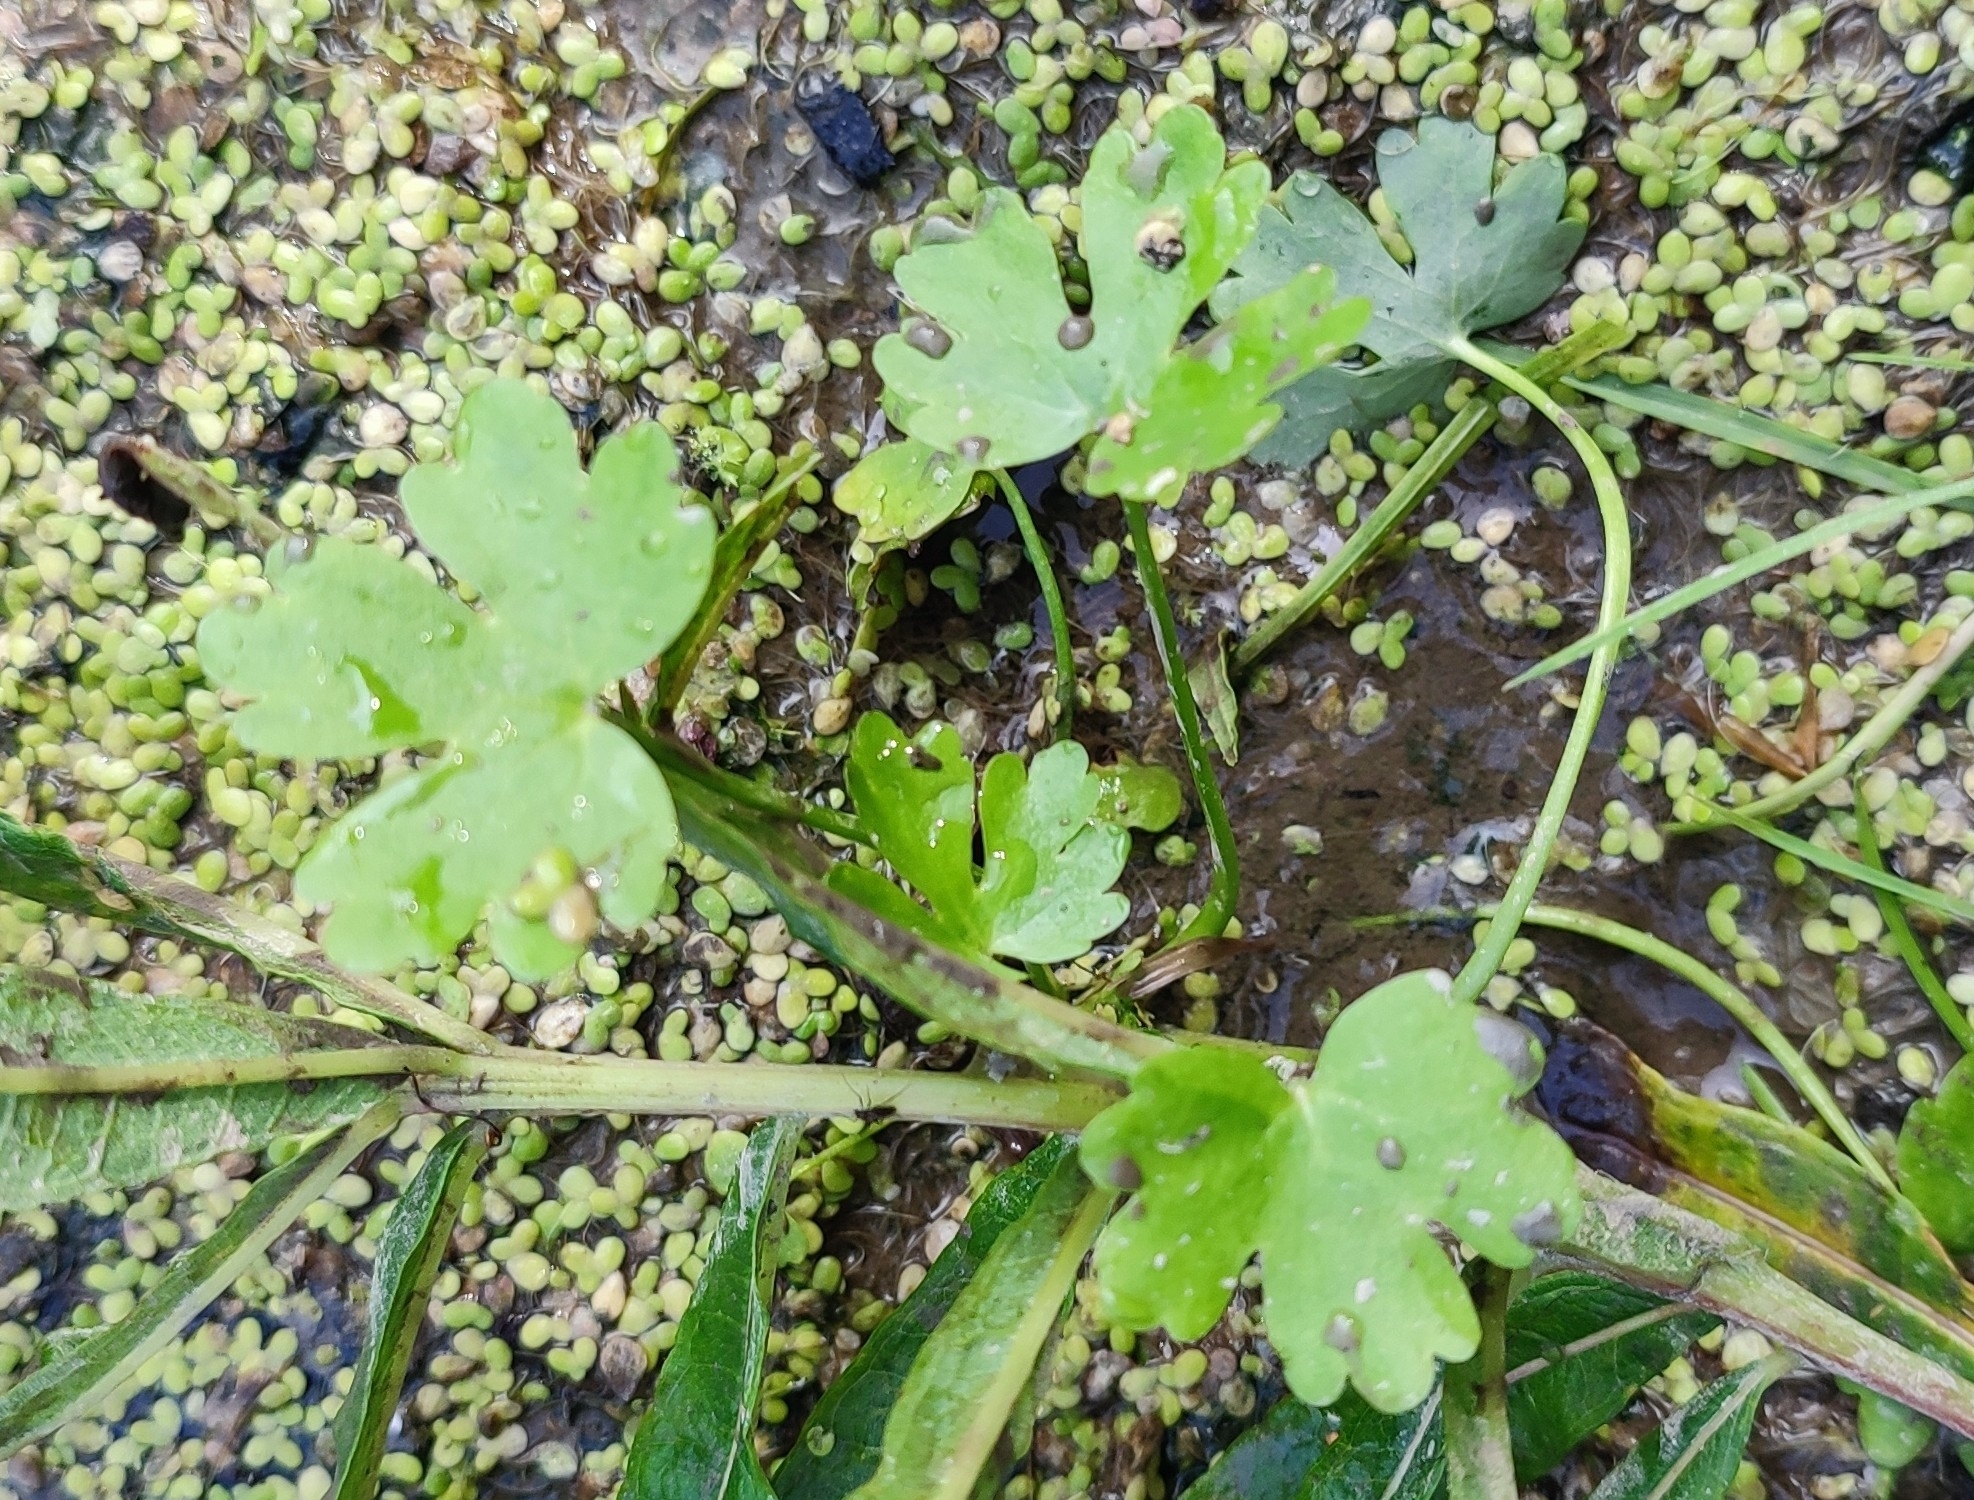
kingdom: Plantae
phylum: Tracheophyta
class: Magnoliopsida
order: Ranunculales
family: Ranunculaceae
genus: Ranunculus
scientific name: Ranunculus sceleratus
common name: Celery-leaved buttercup
